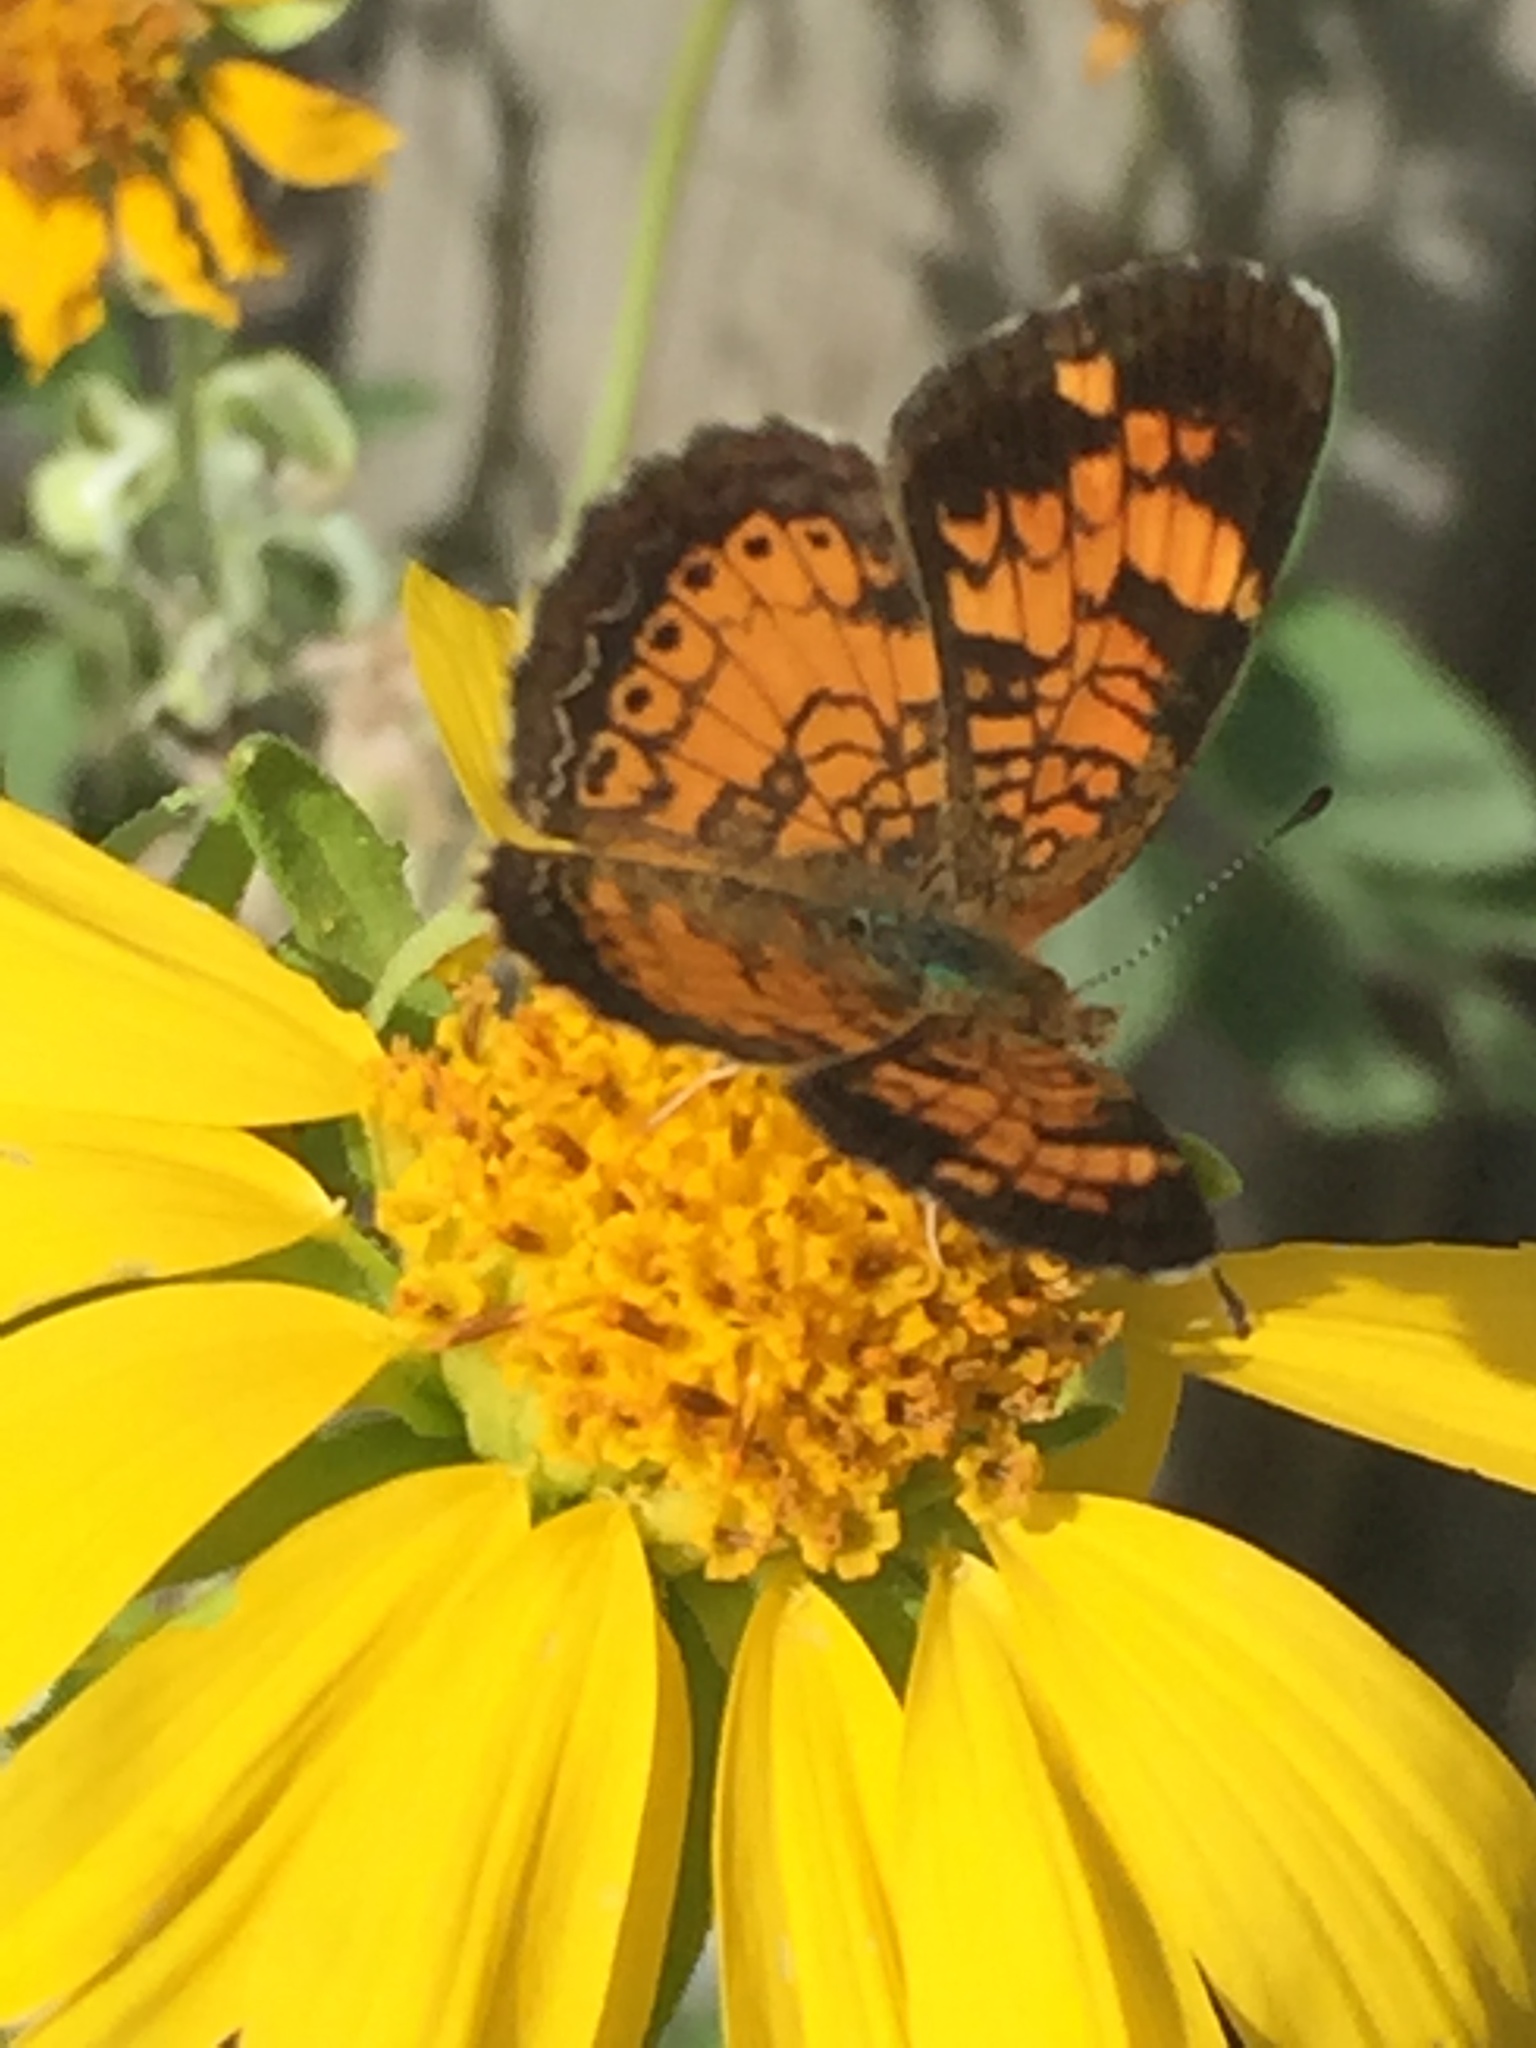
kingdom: Animalia
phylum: Arthropoda
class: Insecta
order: Lepidoptera
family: Nymphalidae
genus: Phyciodes
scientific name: Phyciodes tharos
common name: Pearl crescent
